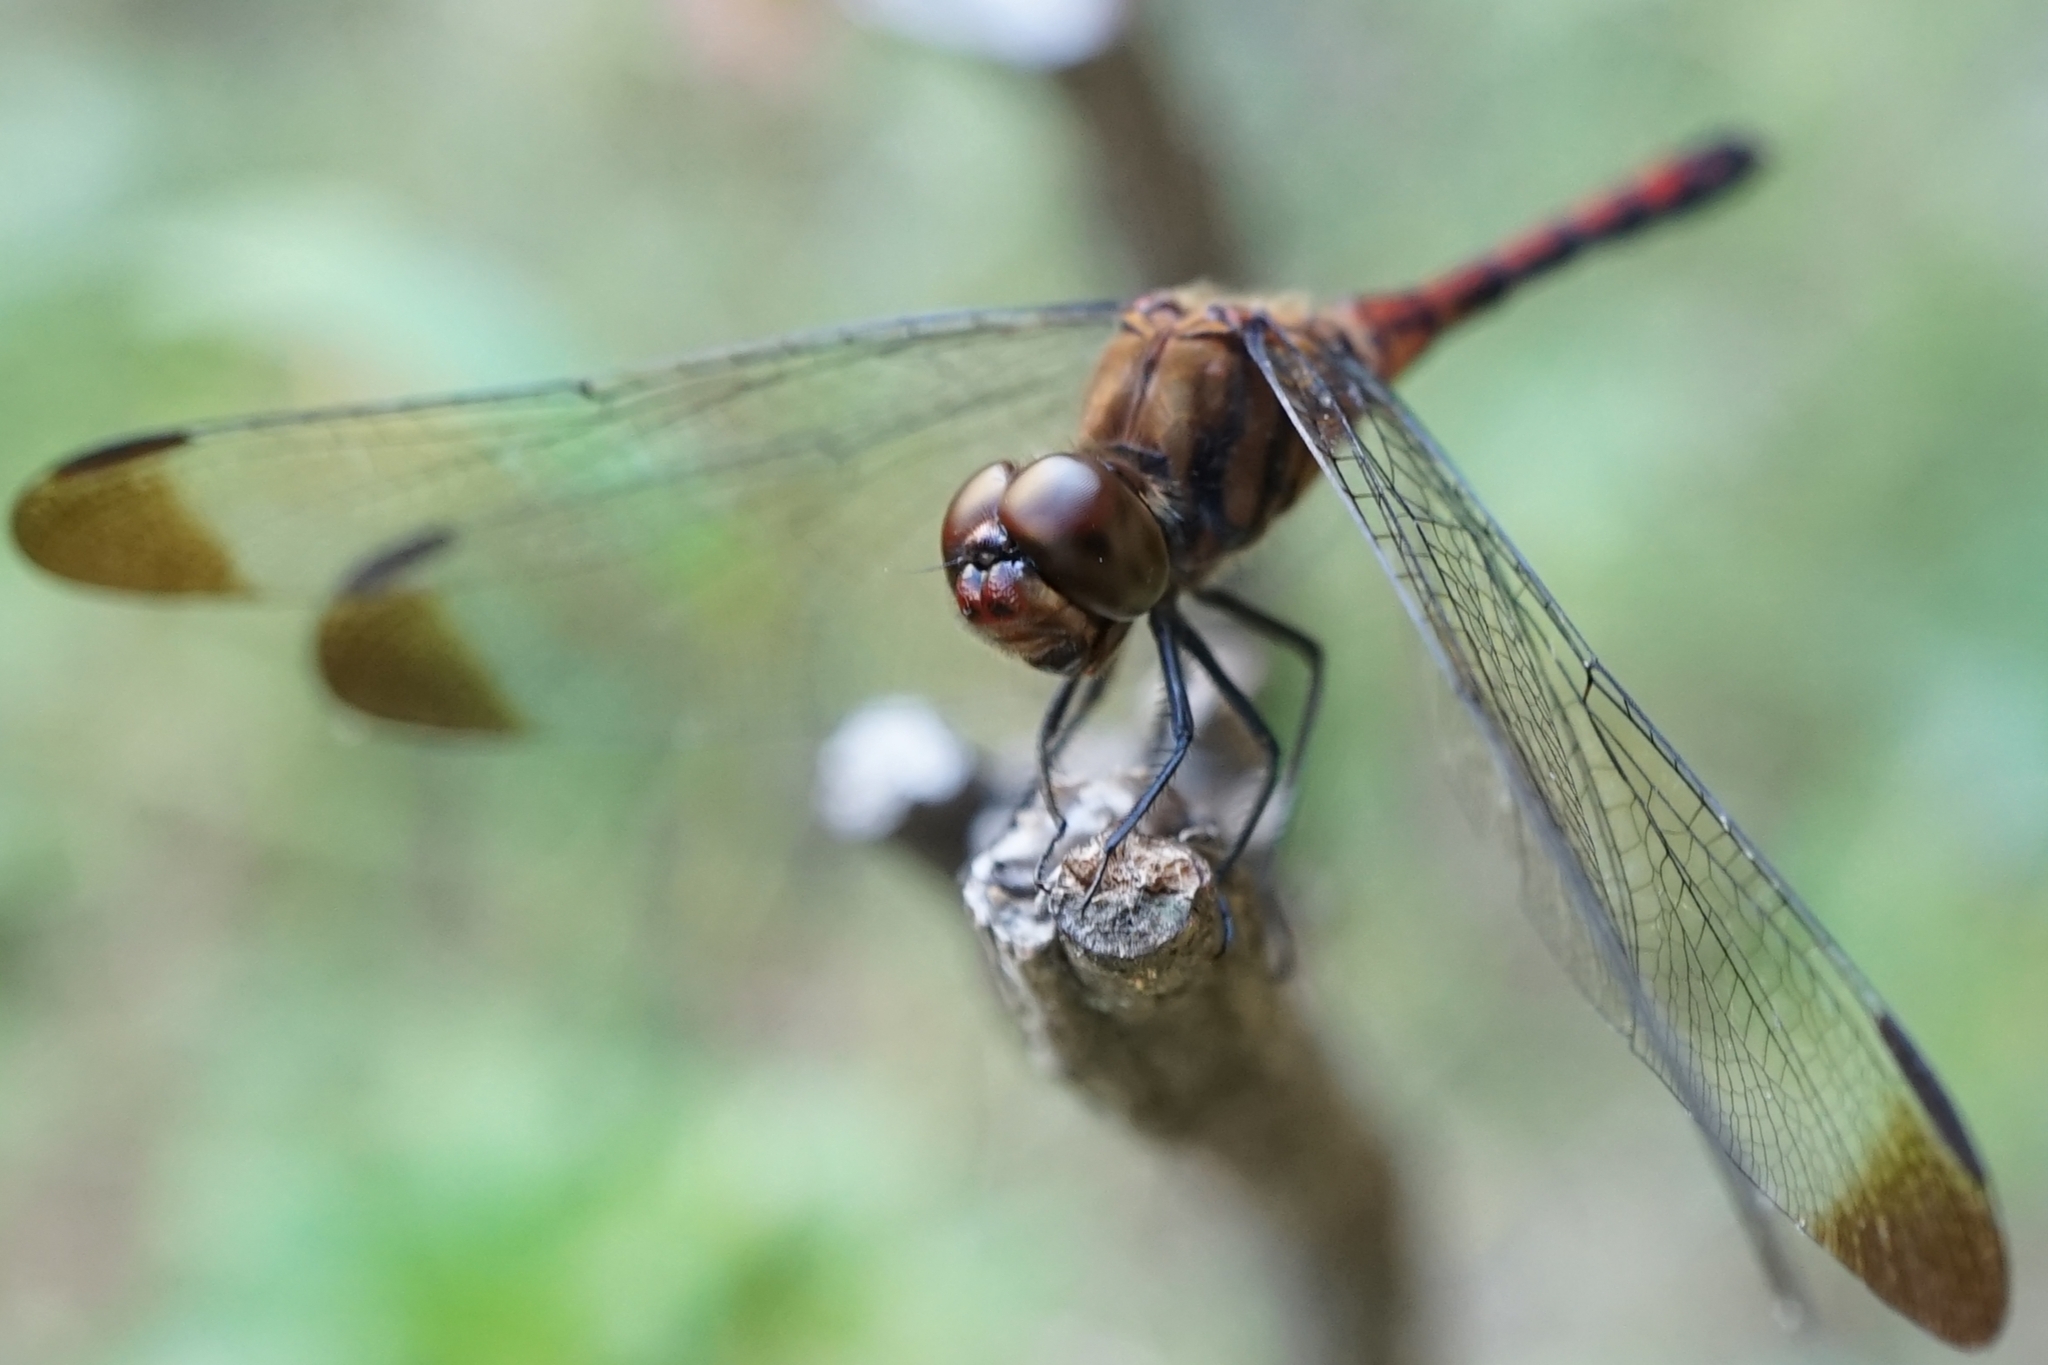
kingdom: Animalia
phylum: Arthropoda
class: Insecta
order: Odonata
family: Libellulidae
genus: Sympetrum
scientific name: Sympetrum infuscatum
